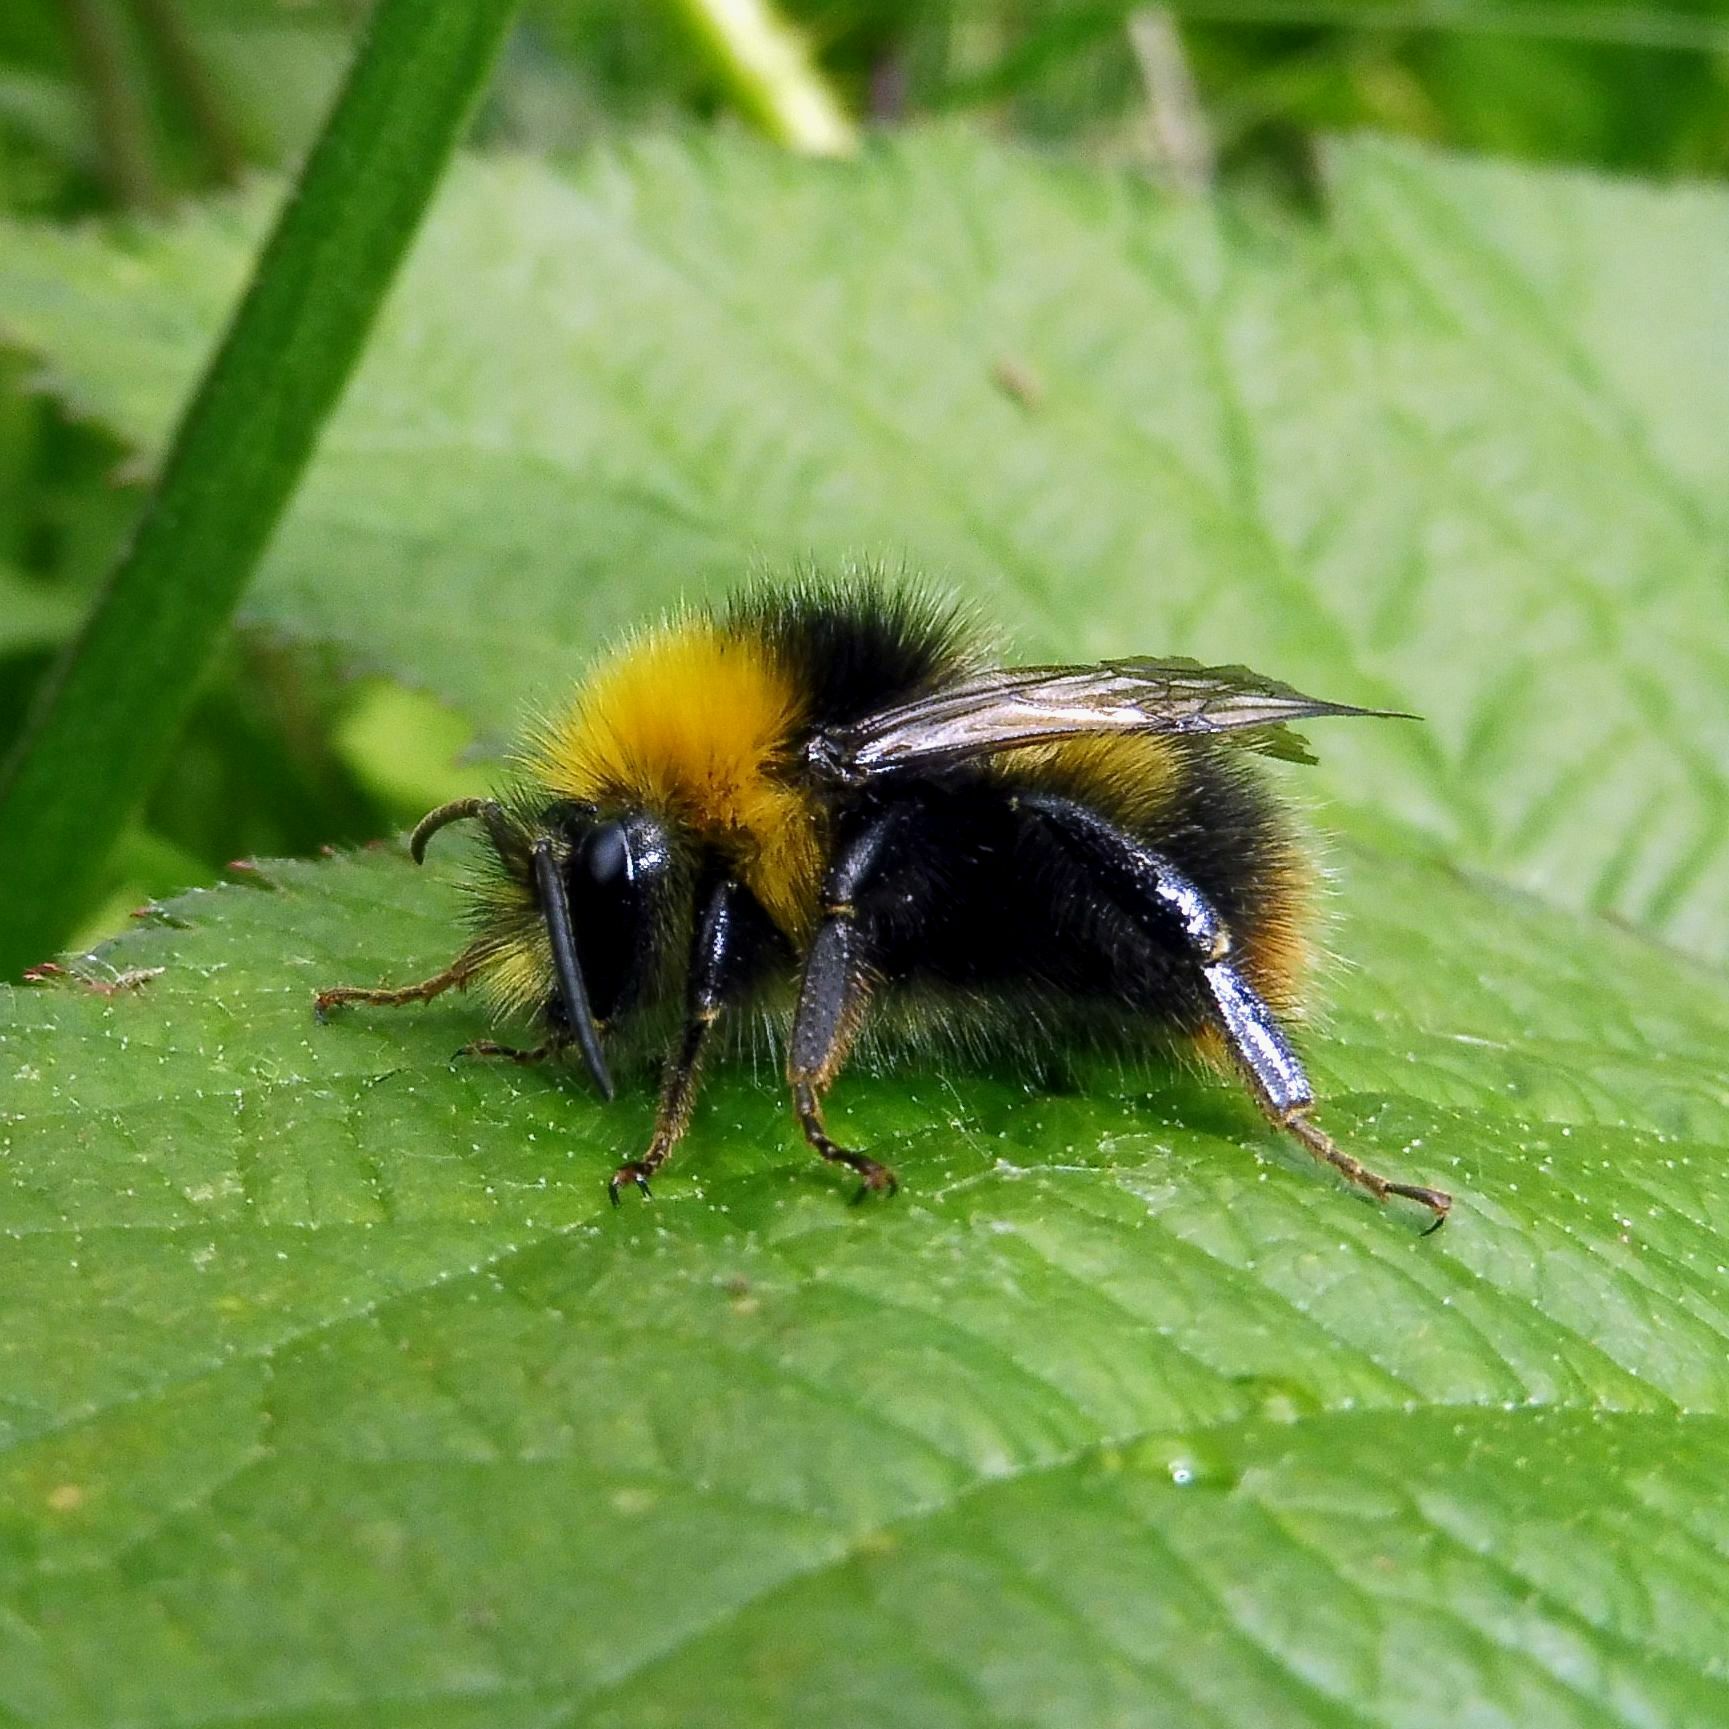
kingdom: Animalia
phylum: Arthropoda
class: Insecta
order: Hymenoptera
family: Apidae
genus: Bombus
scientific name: Bombus pratorum
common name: Early humble-bee
